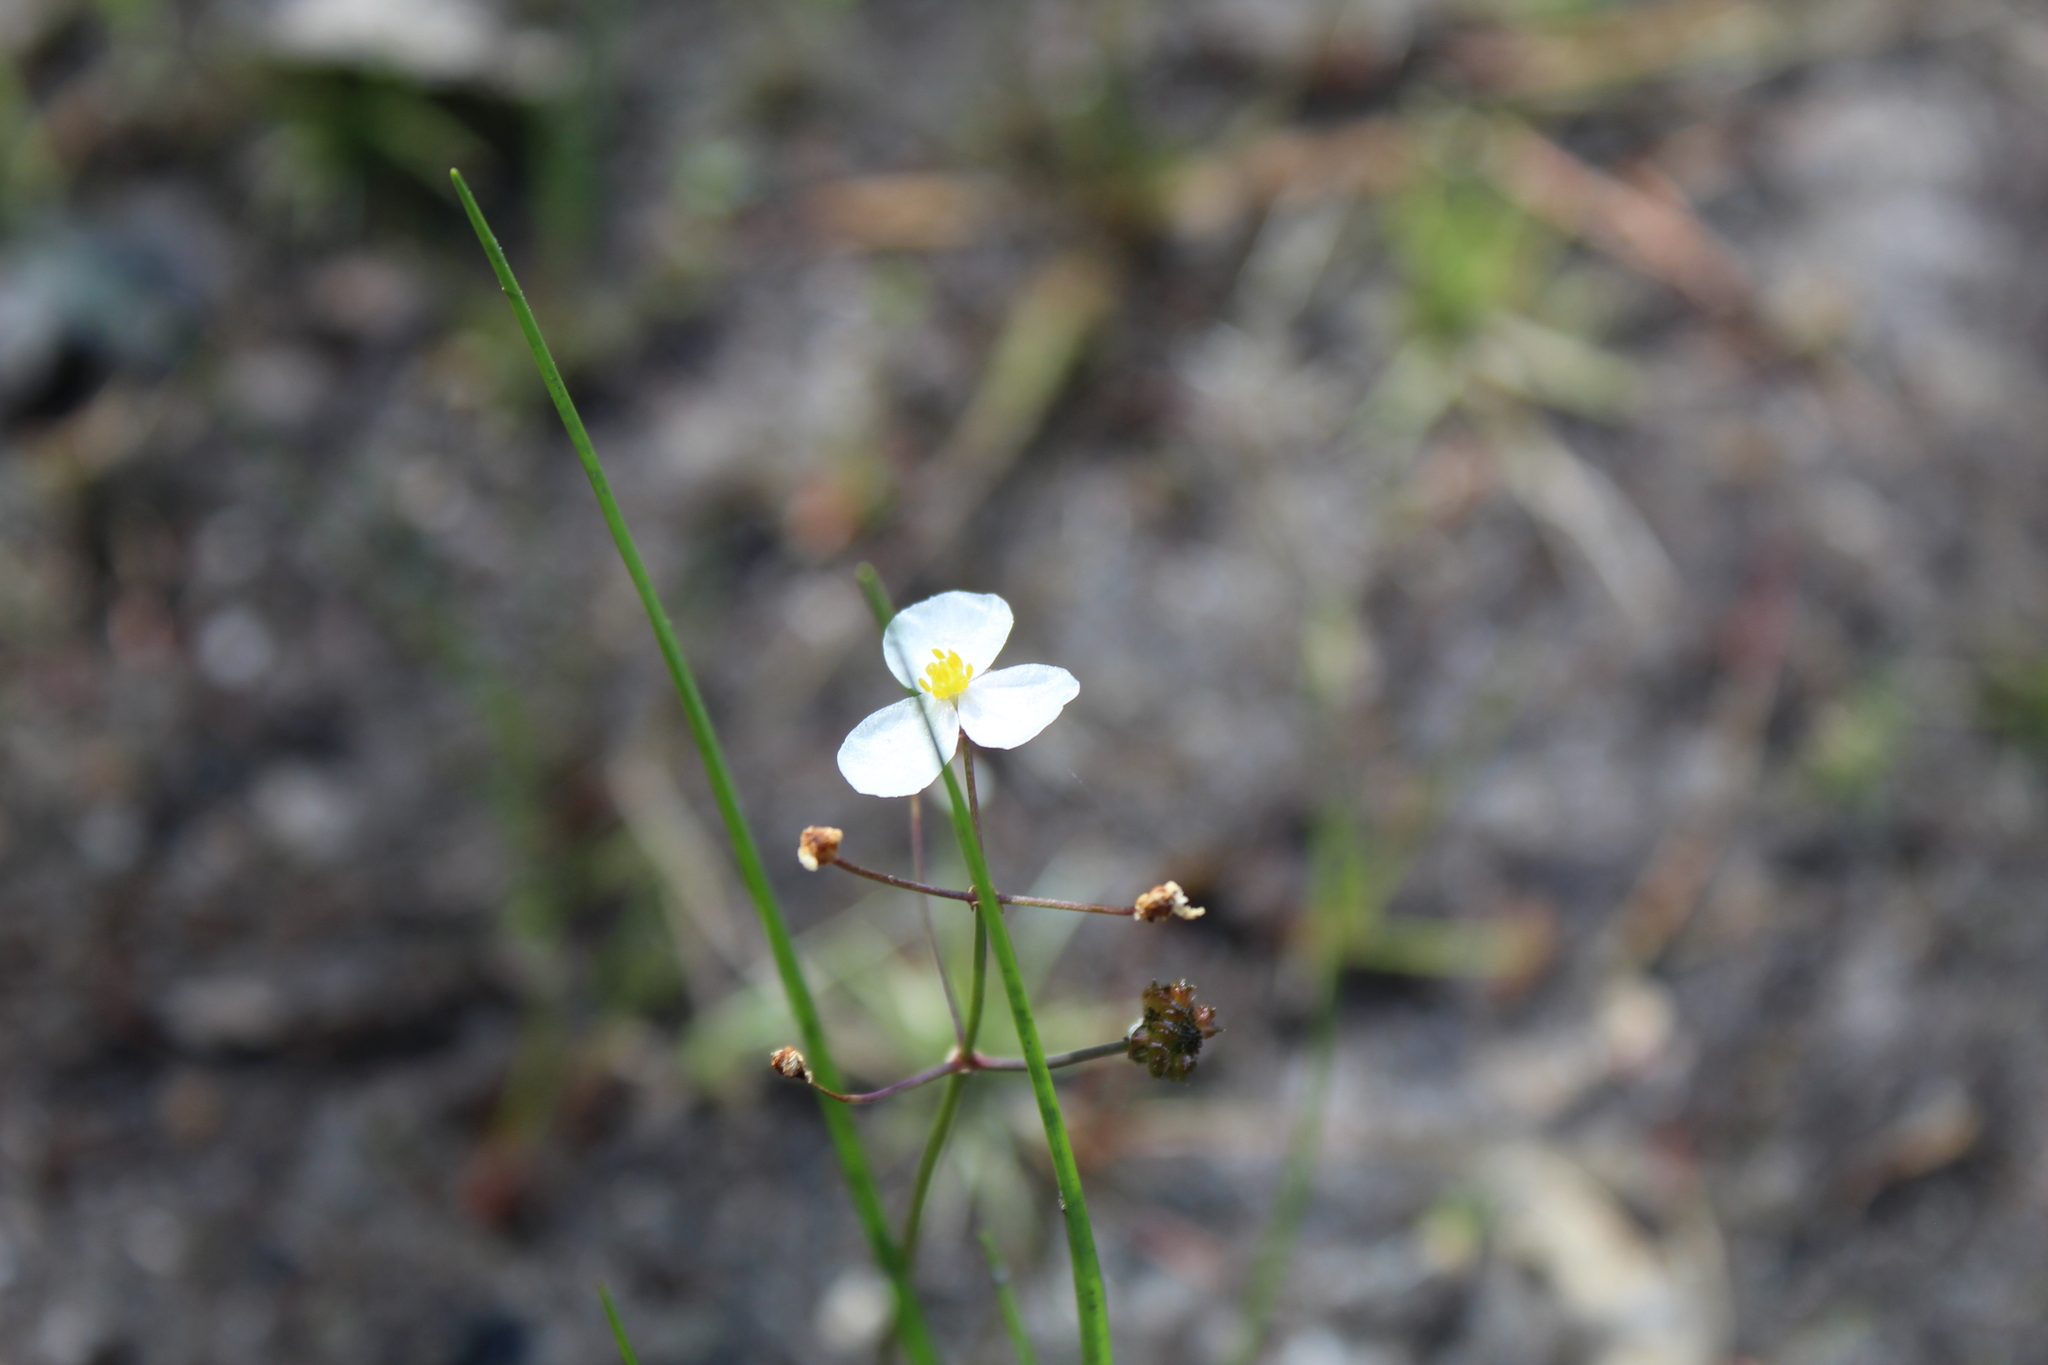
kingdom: Plantae
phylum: Tracheophyta
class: Liliopsida
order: Alismatales
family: Alismataceae
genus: Sagittaria
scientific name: Sagittaria teres
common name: Quill-leaf sagittaria
